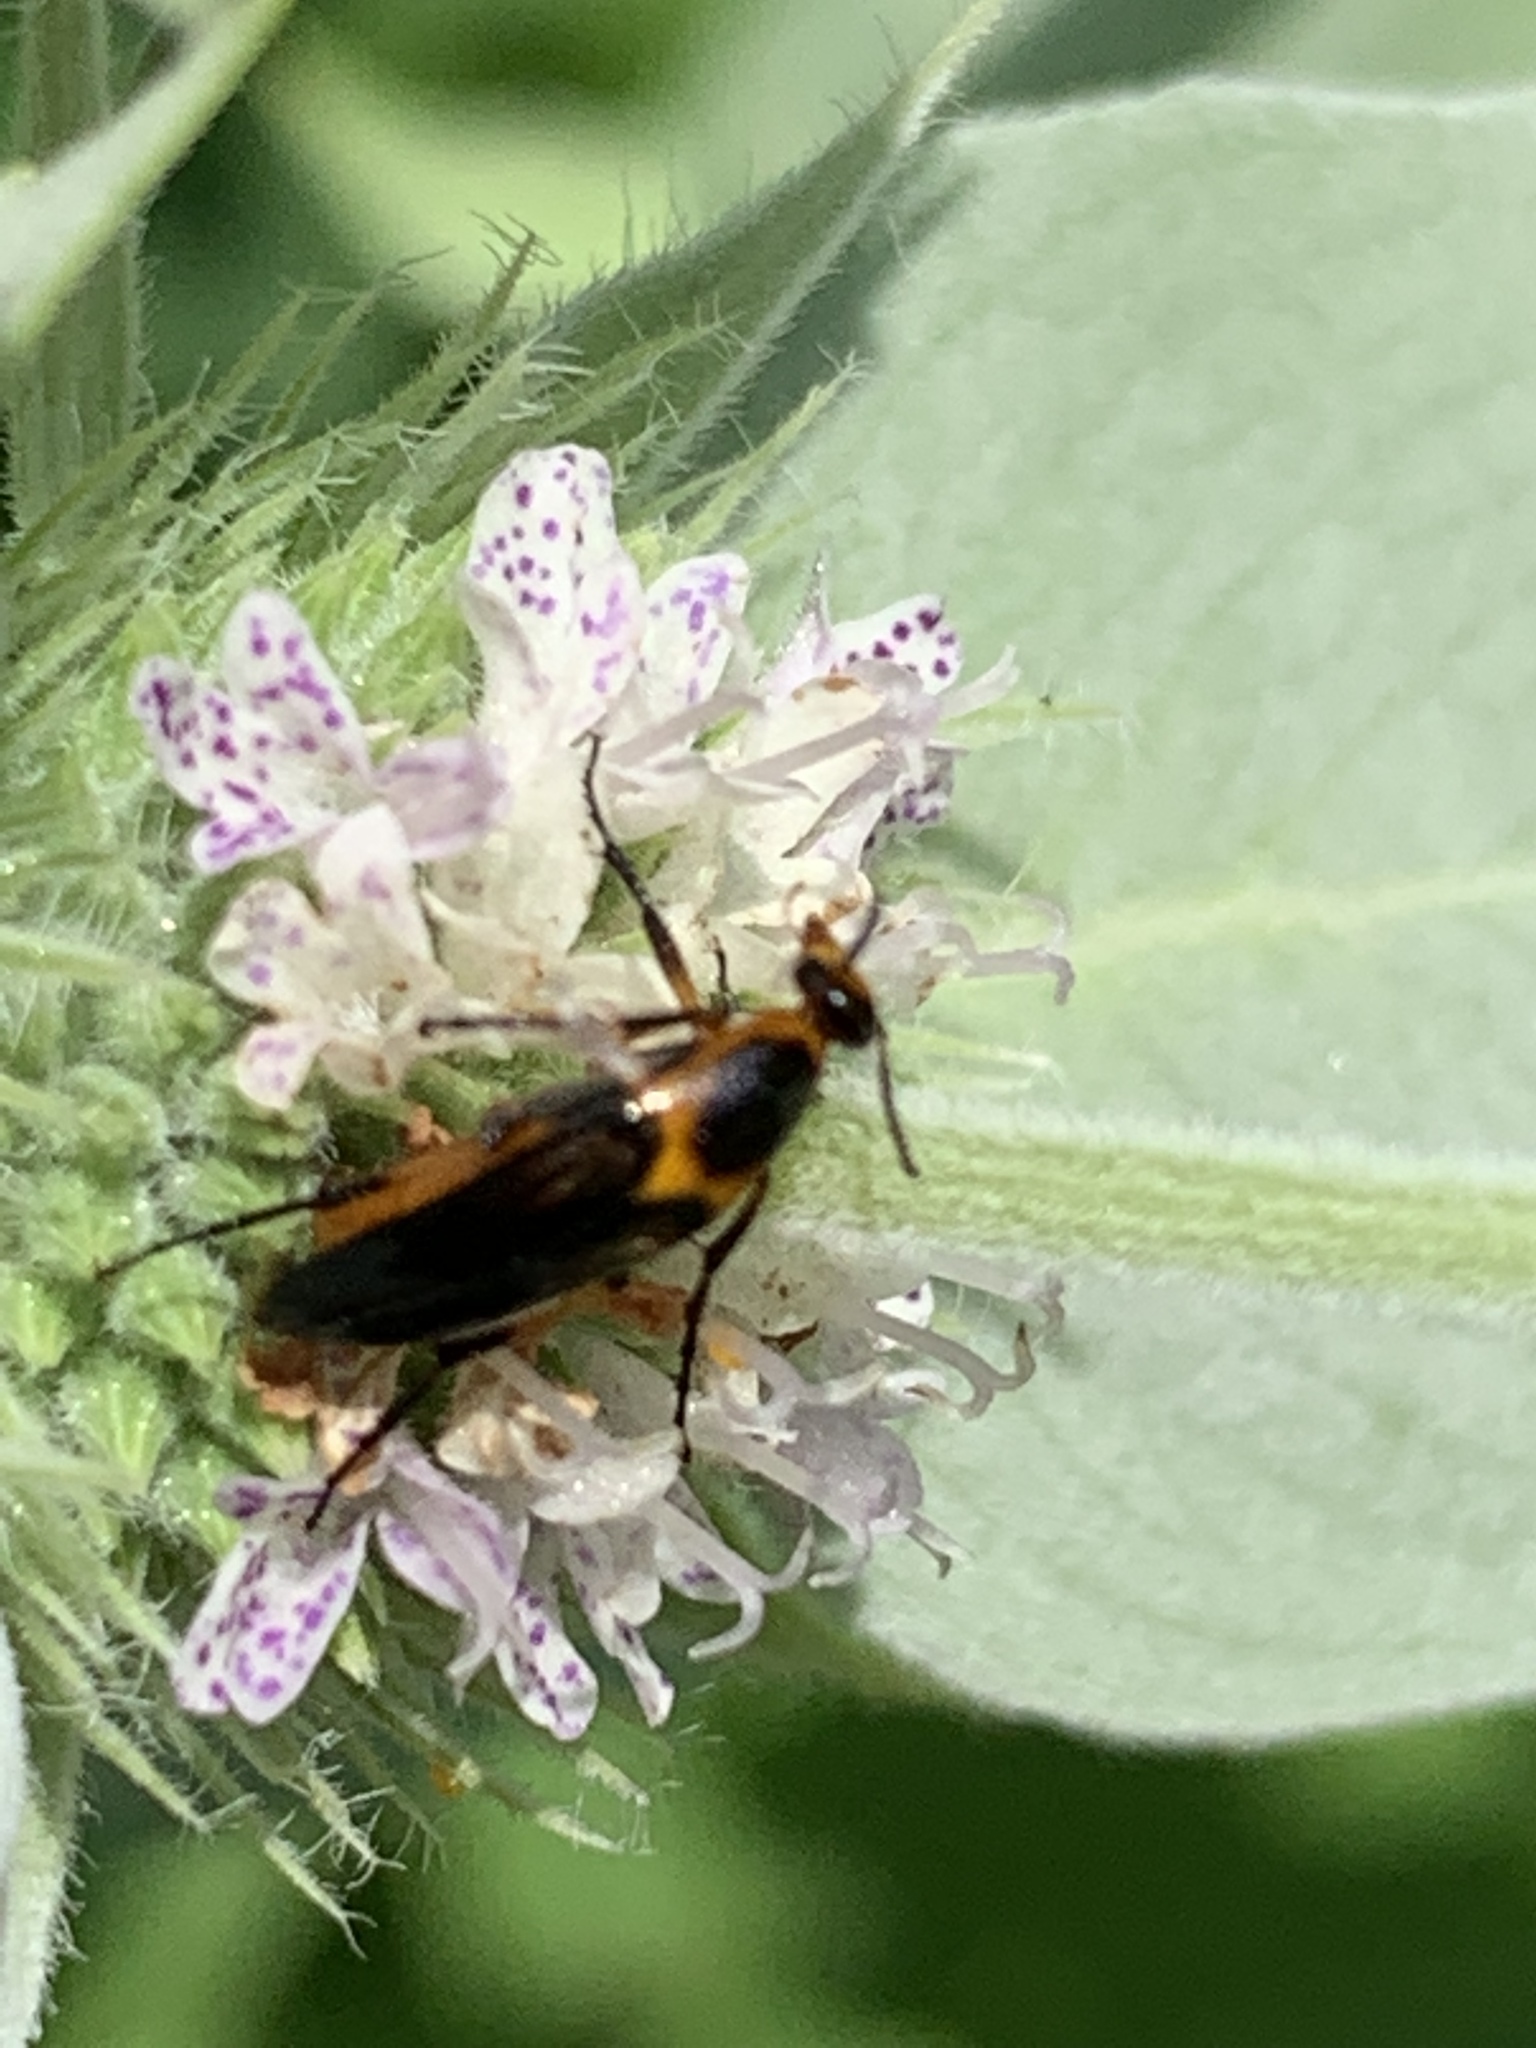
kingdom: Animalia
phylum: Arthropoda
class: Insecta
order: Coleoptera
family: Ripiphoridae
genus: Macrosiagon
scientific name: Macrosiagon limbatum
